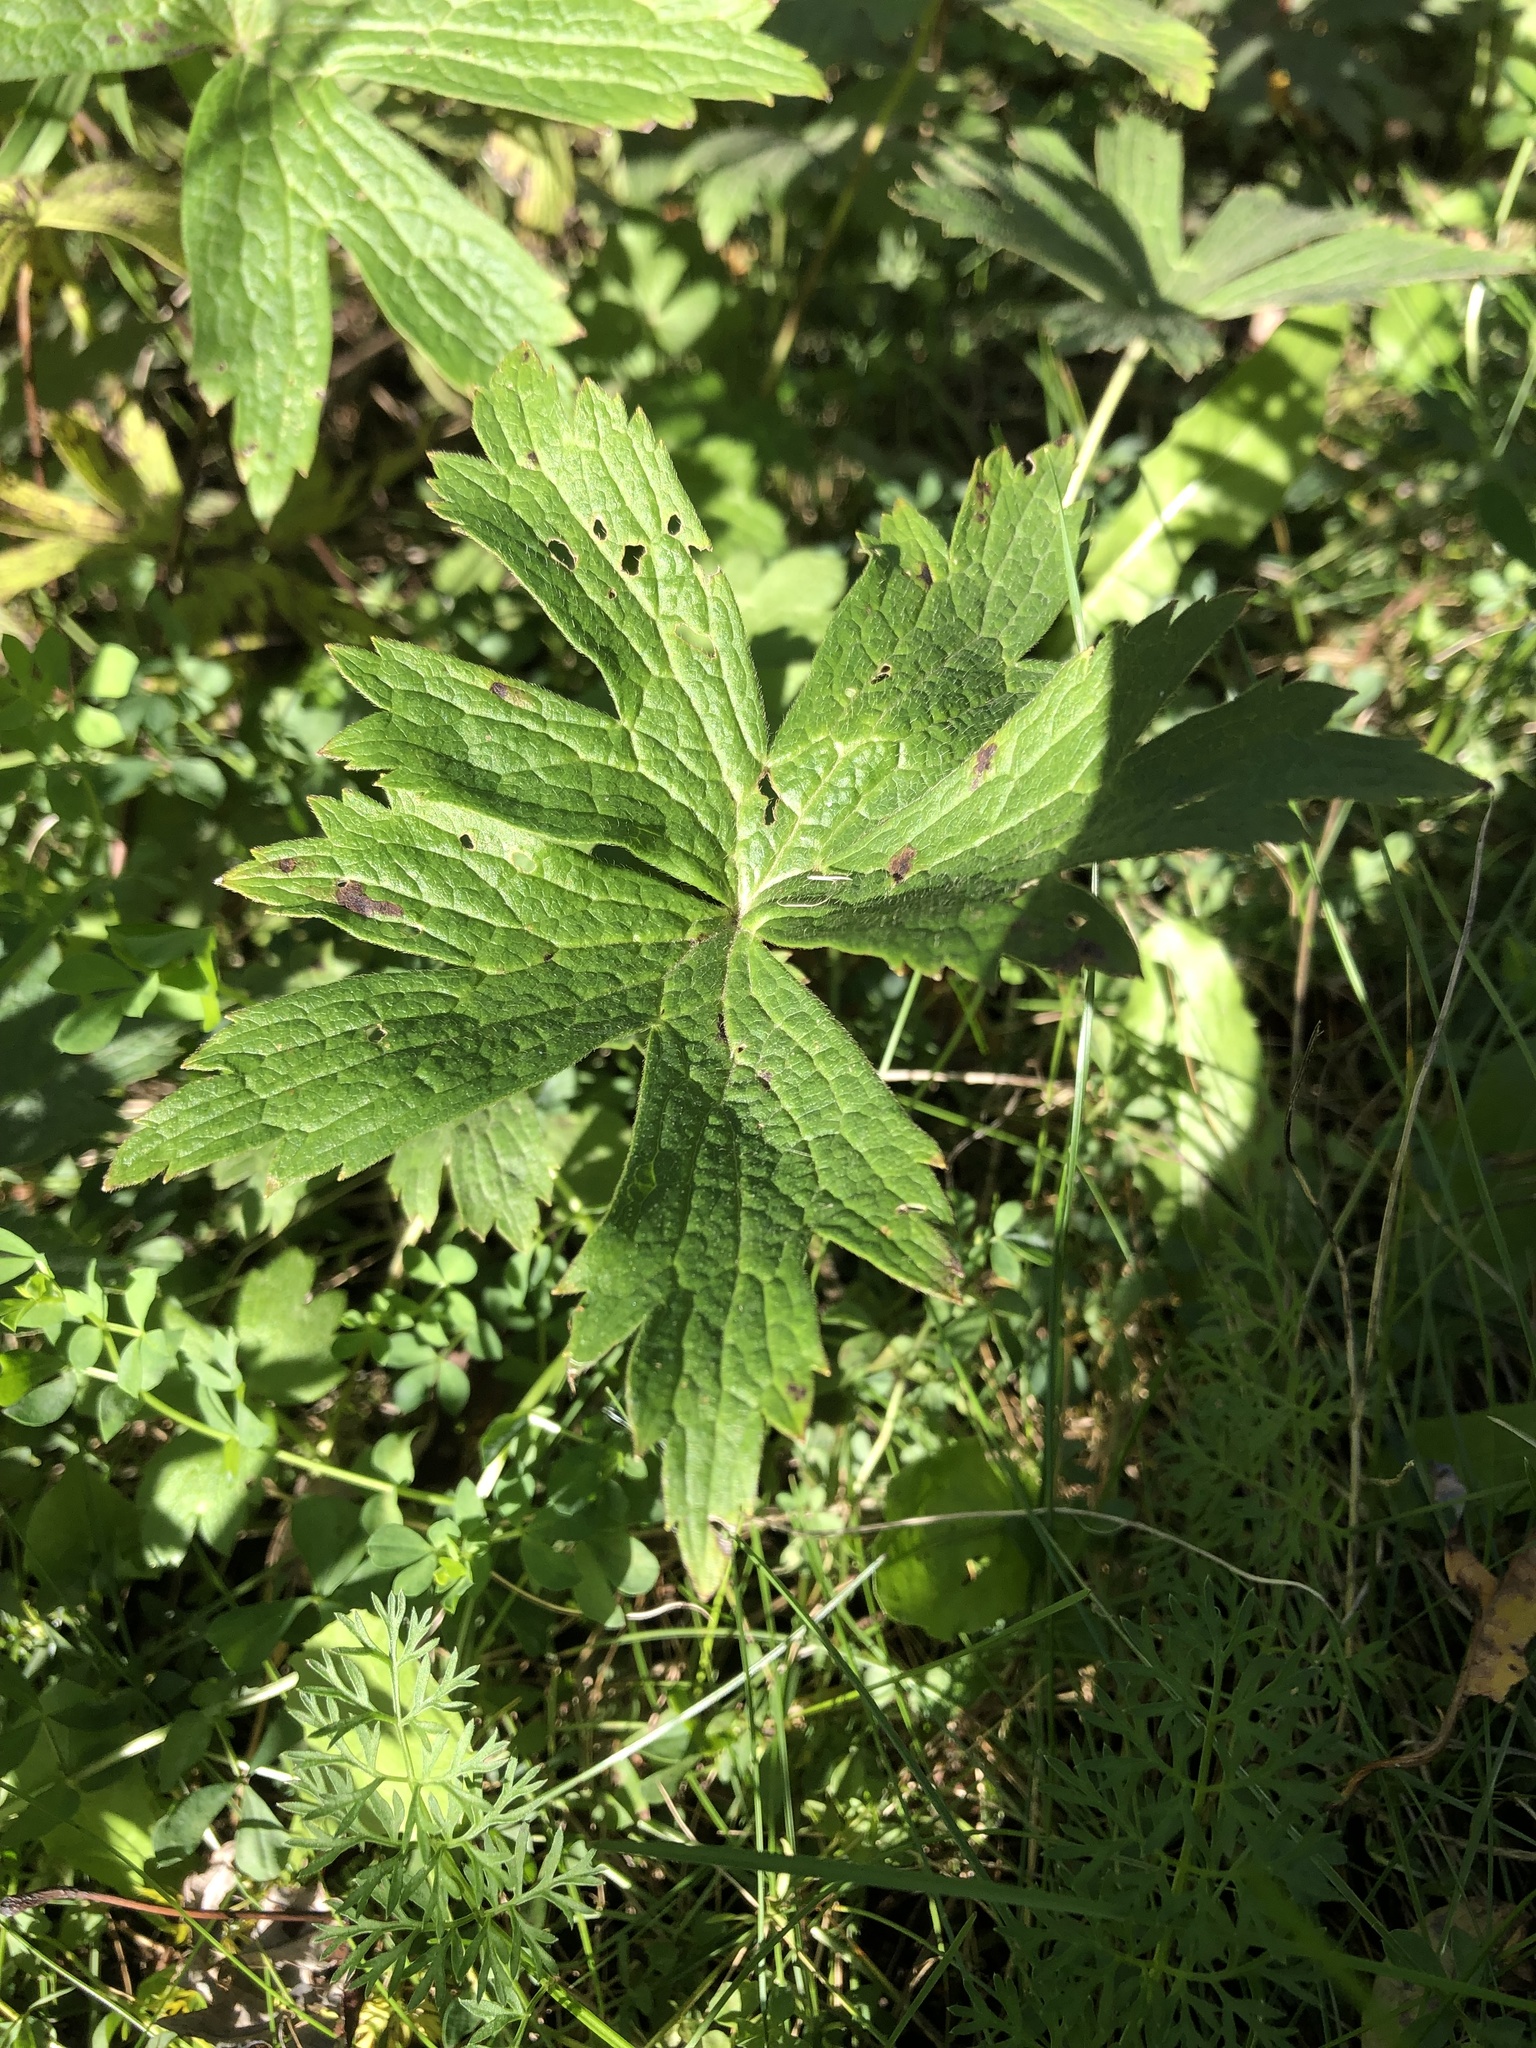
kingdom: Plantae
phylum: Tracheophyta
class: Magnoliopsida
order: Ranunculales
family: Ranunculaceae
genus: Anemonastrum
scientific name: Anemonastrum canadense
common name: Canada anemone
